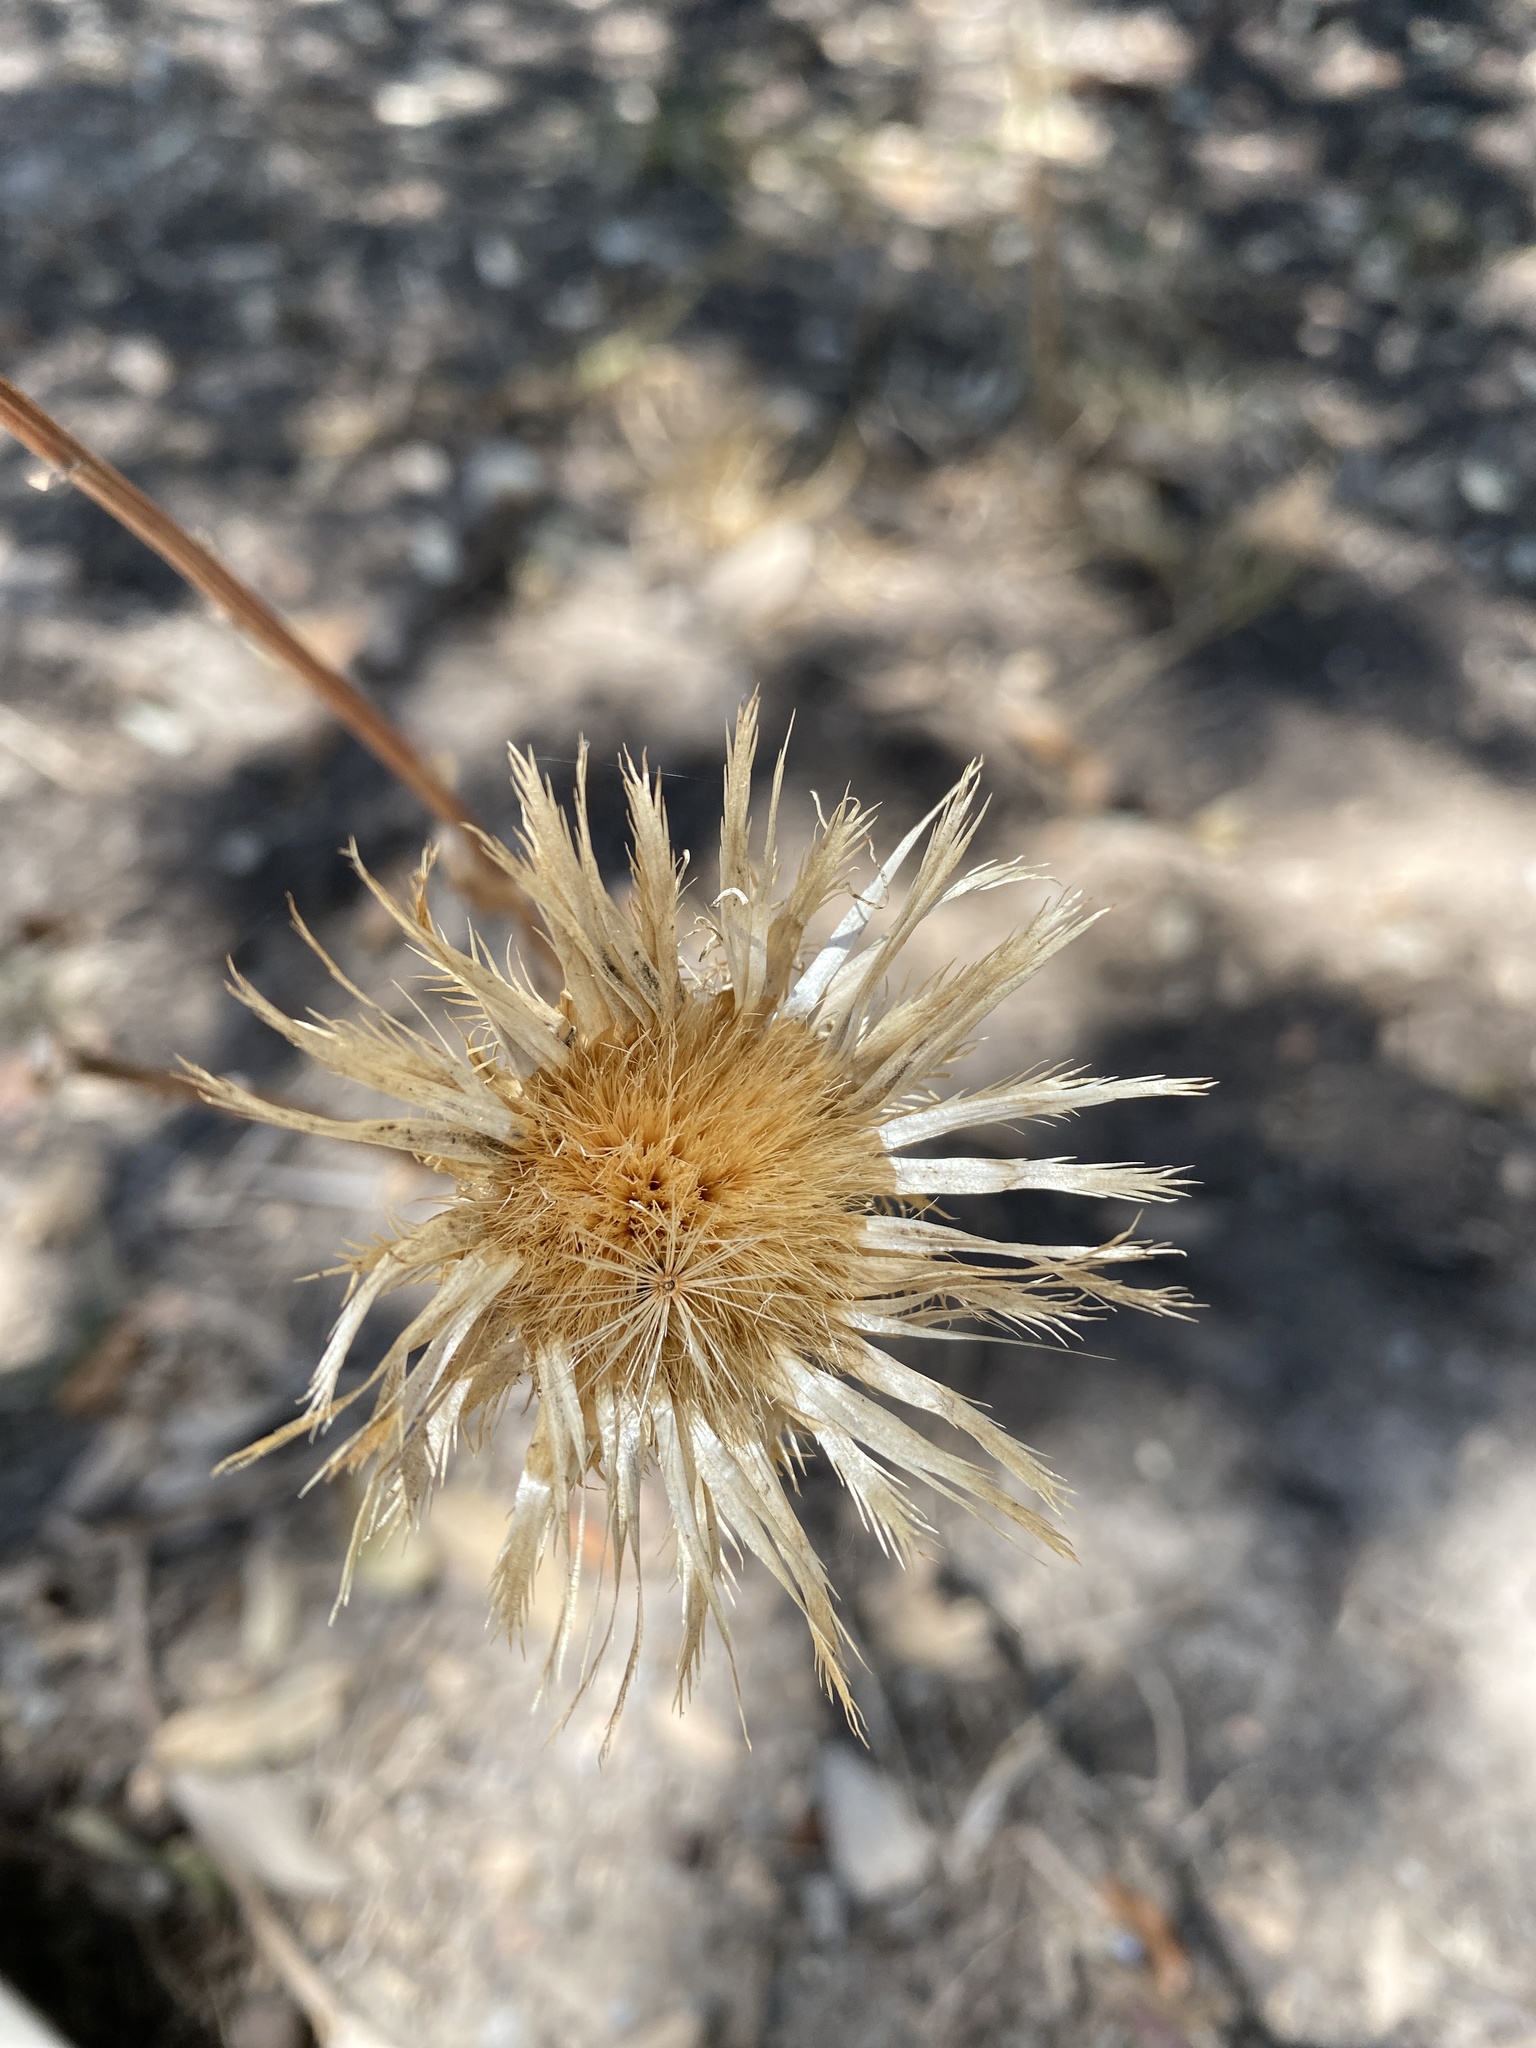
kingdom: Plantae
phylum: Tracheophyta
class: Magnoliopsida
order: Asterales
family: Asteraceae
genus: Plectocephalus
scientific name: Plectocephalus americanus
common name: American basket-flower
